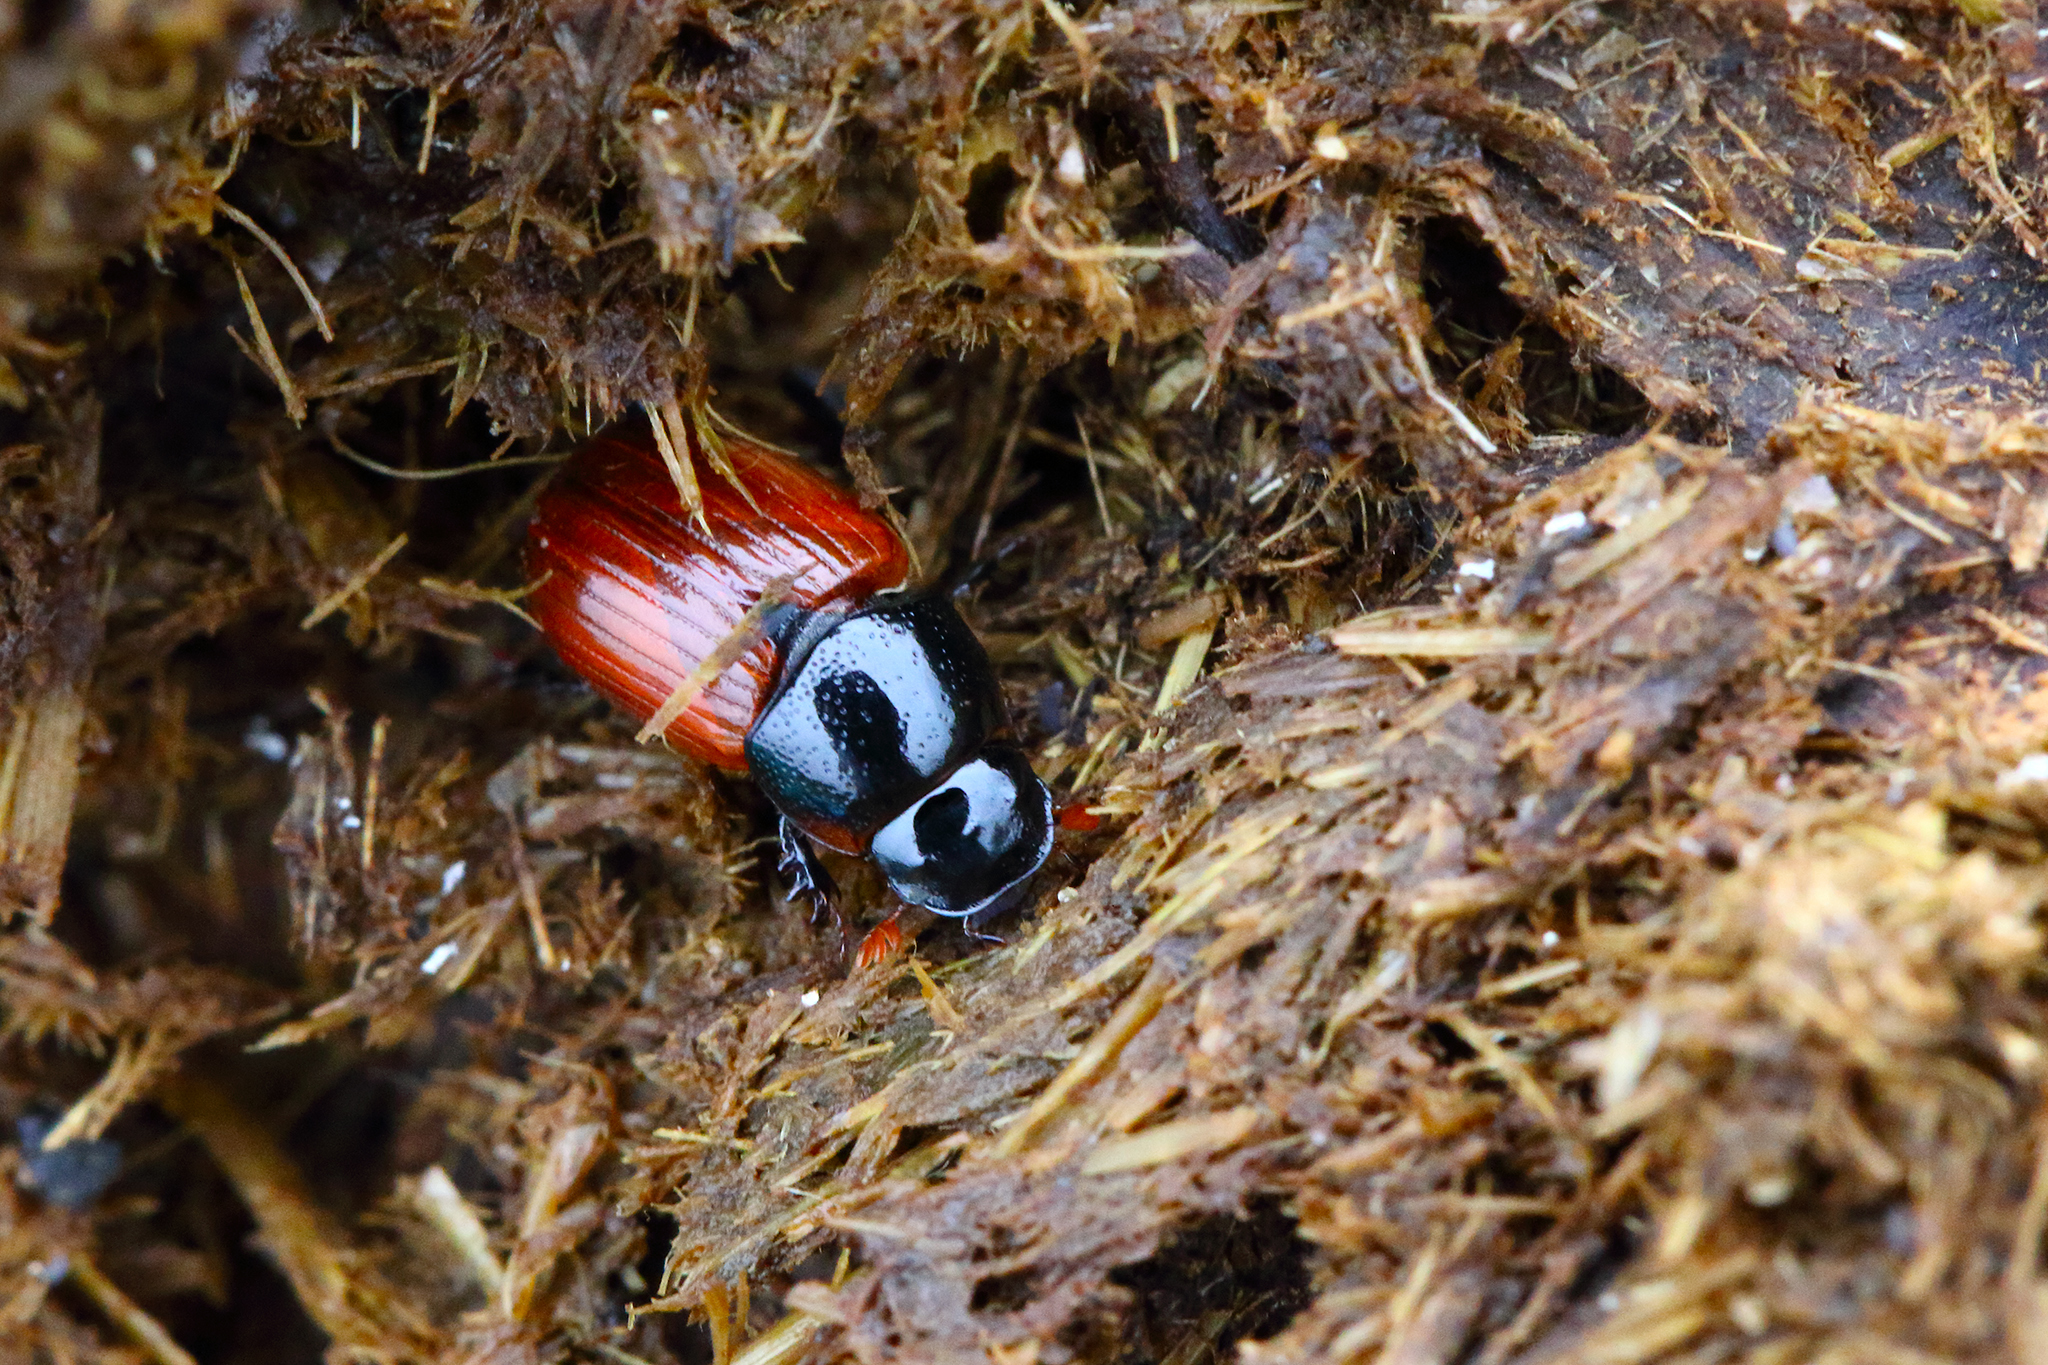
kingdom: Animalia
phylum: Arthropoda
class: Insecta
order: Coleoptera
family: Scarabaeidae
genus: Aphodius
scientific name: Aphodius fimetarius
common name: Common dung beetle
